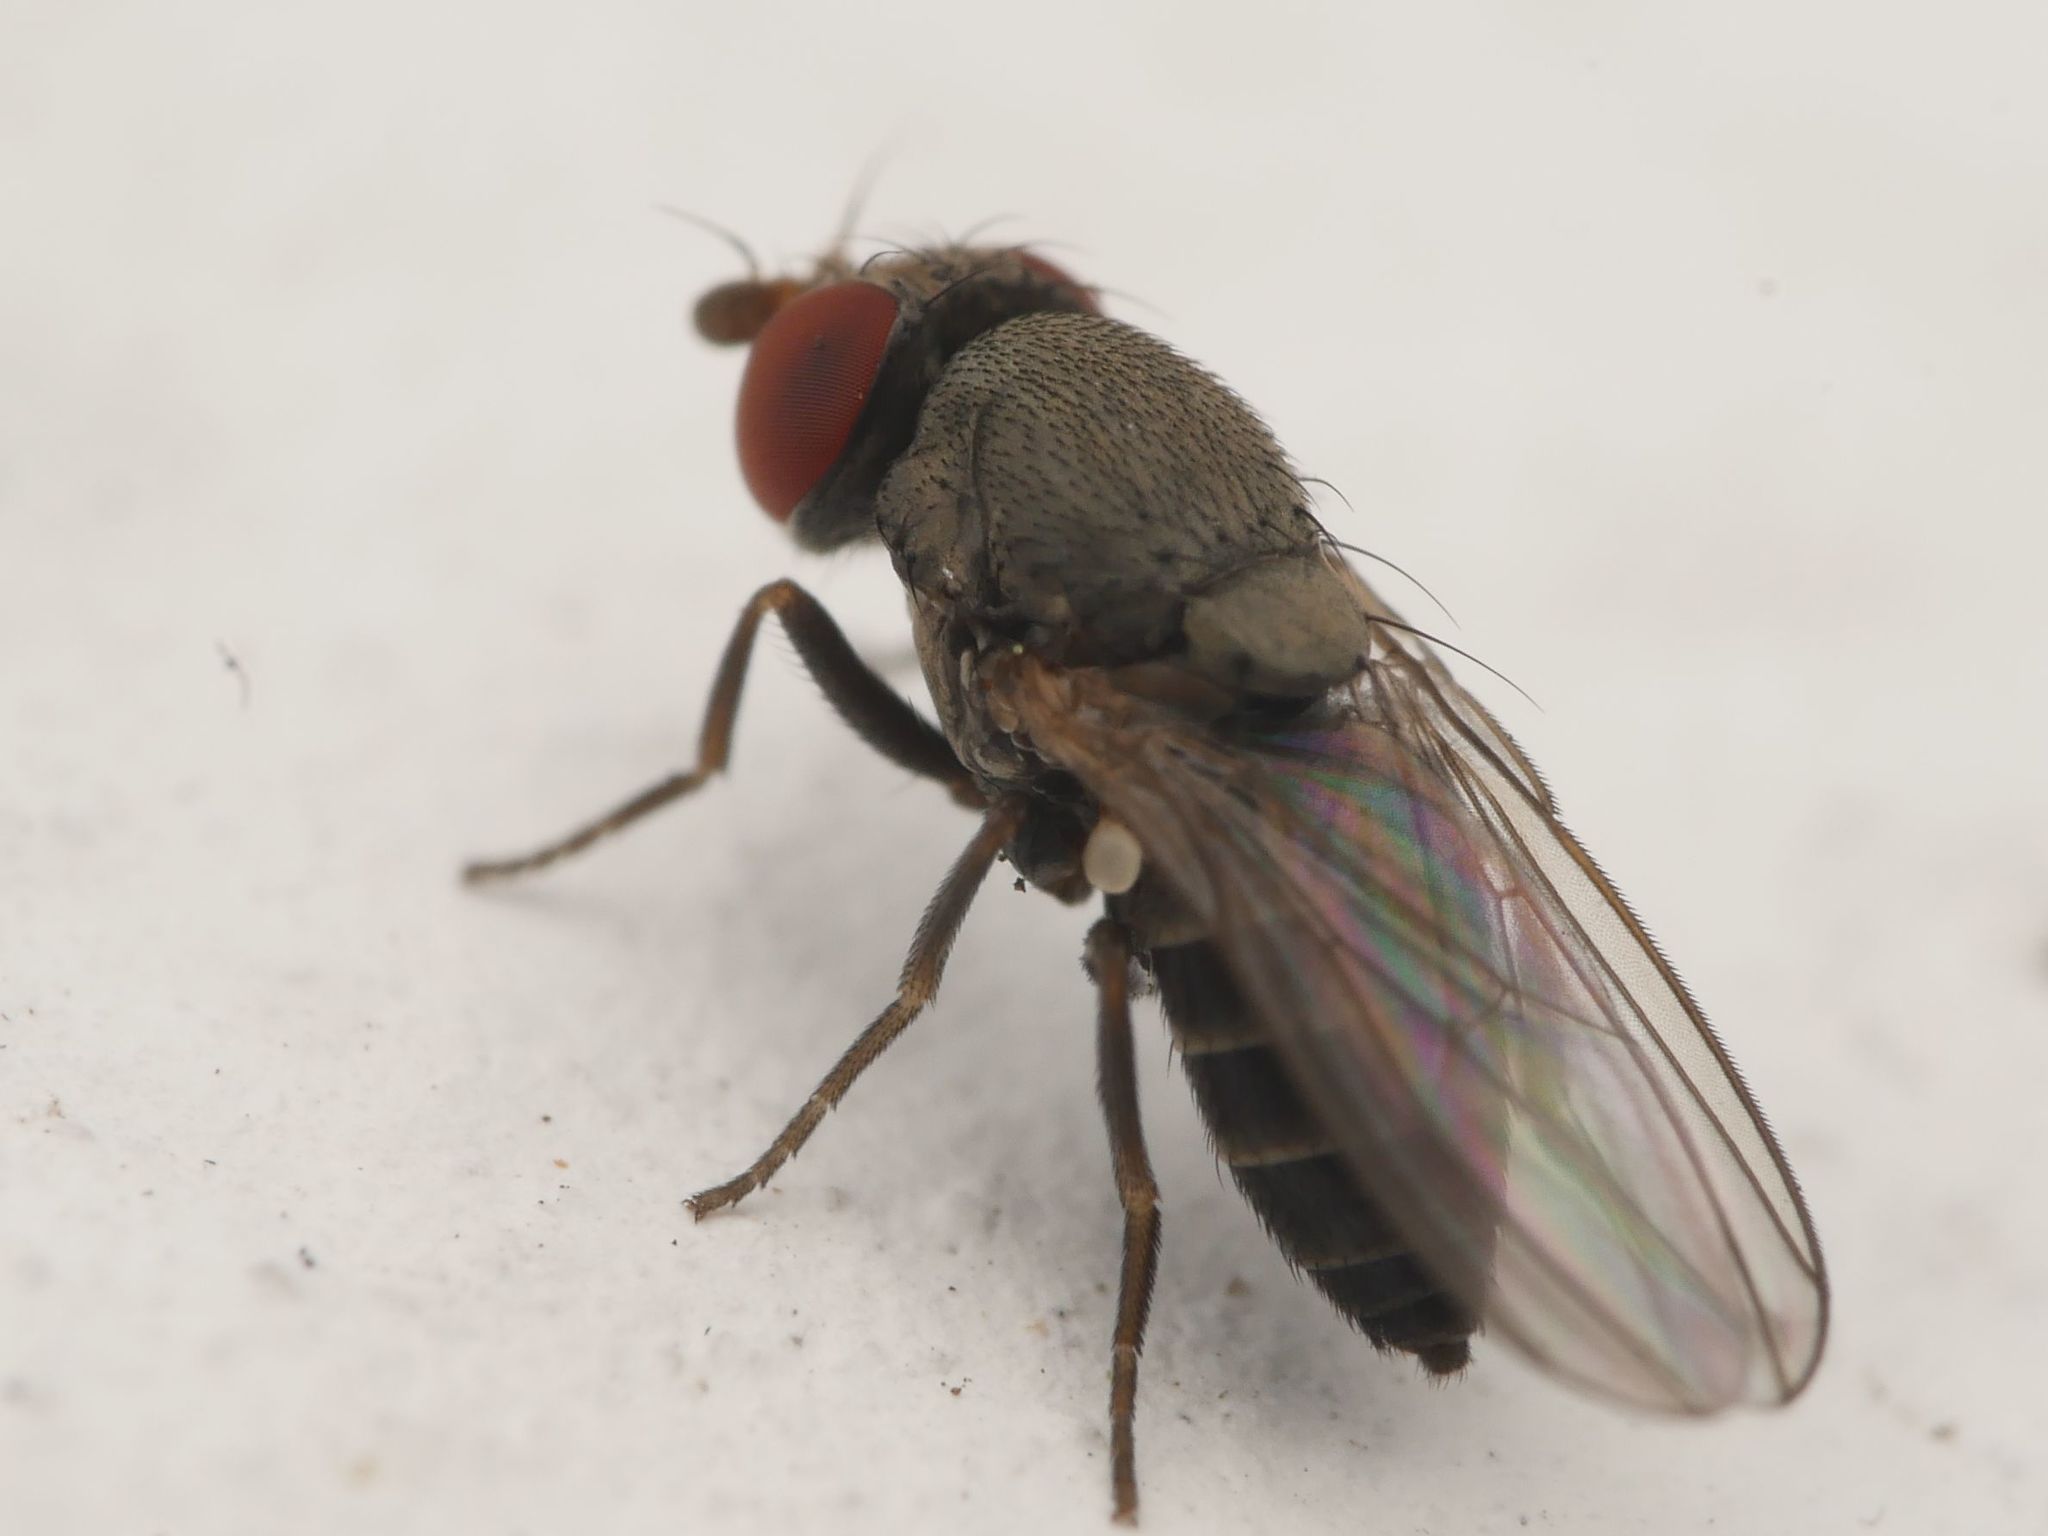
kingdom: Animalia
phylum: Arthropoda
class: Insecta
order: Diptera
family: Drosophilidae
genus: Cacoxenus
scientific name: Cacoxenus indagator
